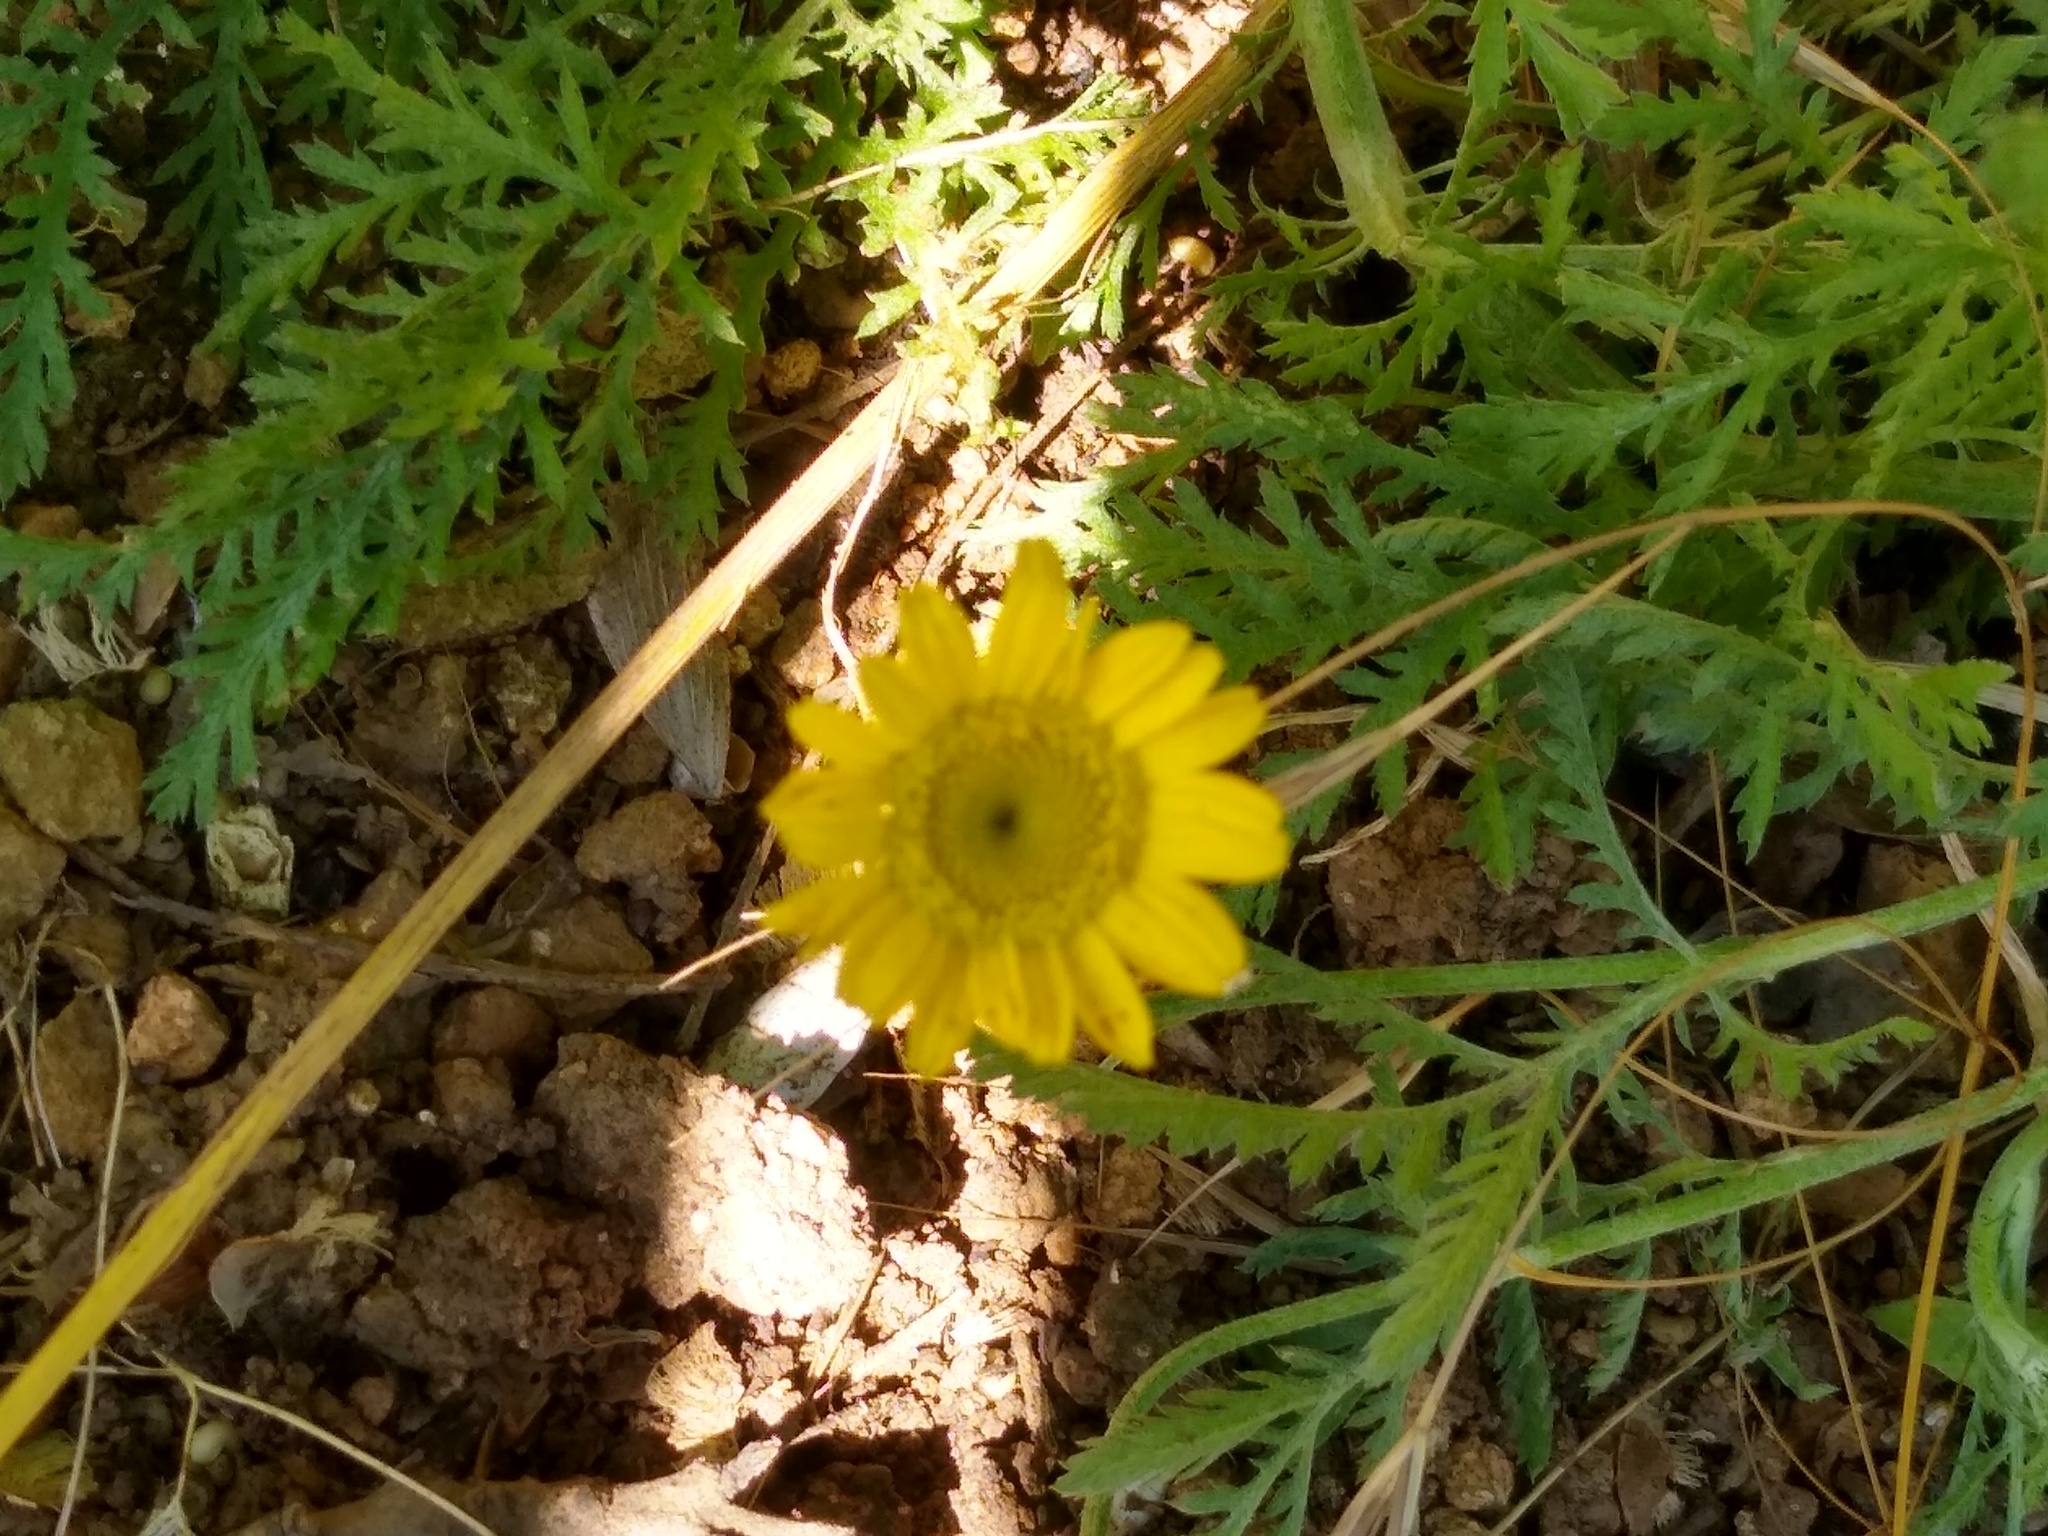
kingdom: Plantae
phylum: Tracheophyta
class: Magnoliopsida
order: Asterales
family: Asteraceae
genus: Cota
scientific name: Cota tinctoria
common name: Golden chamomile
